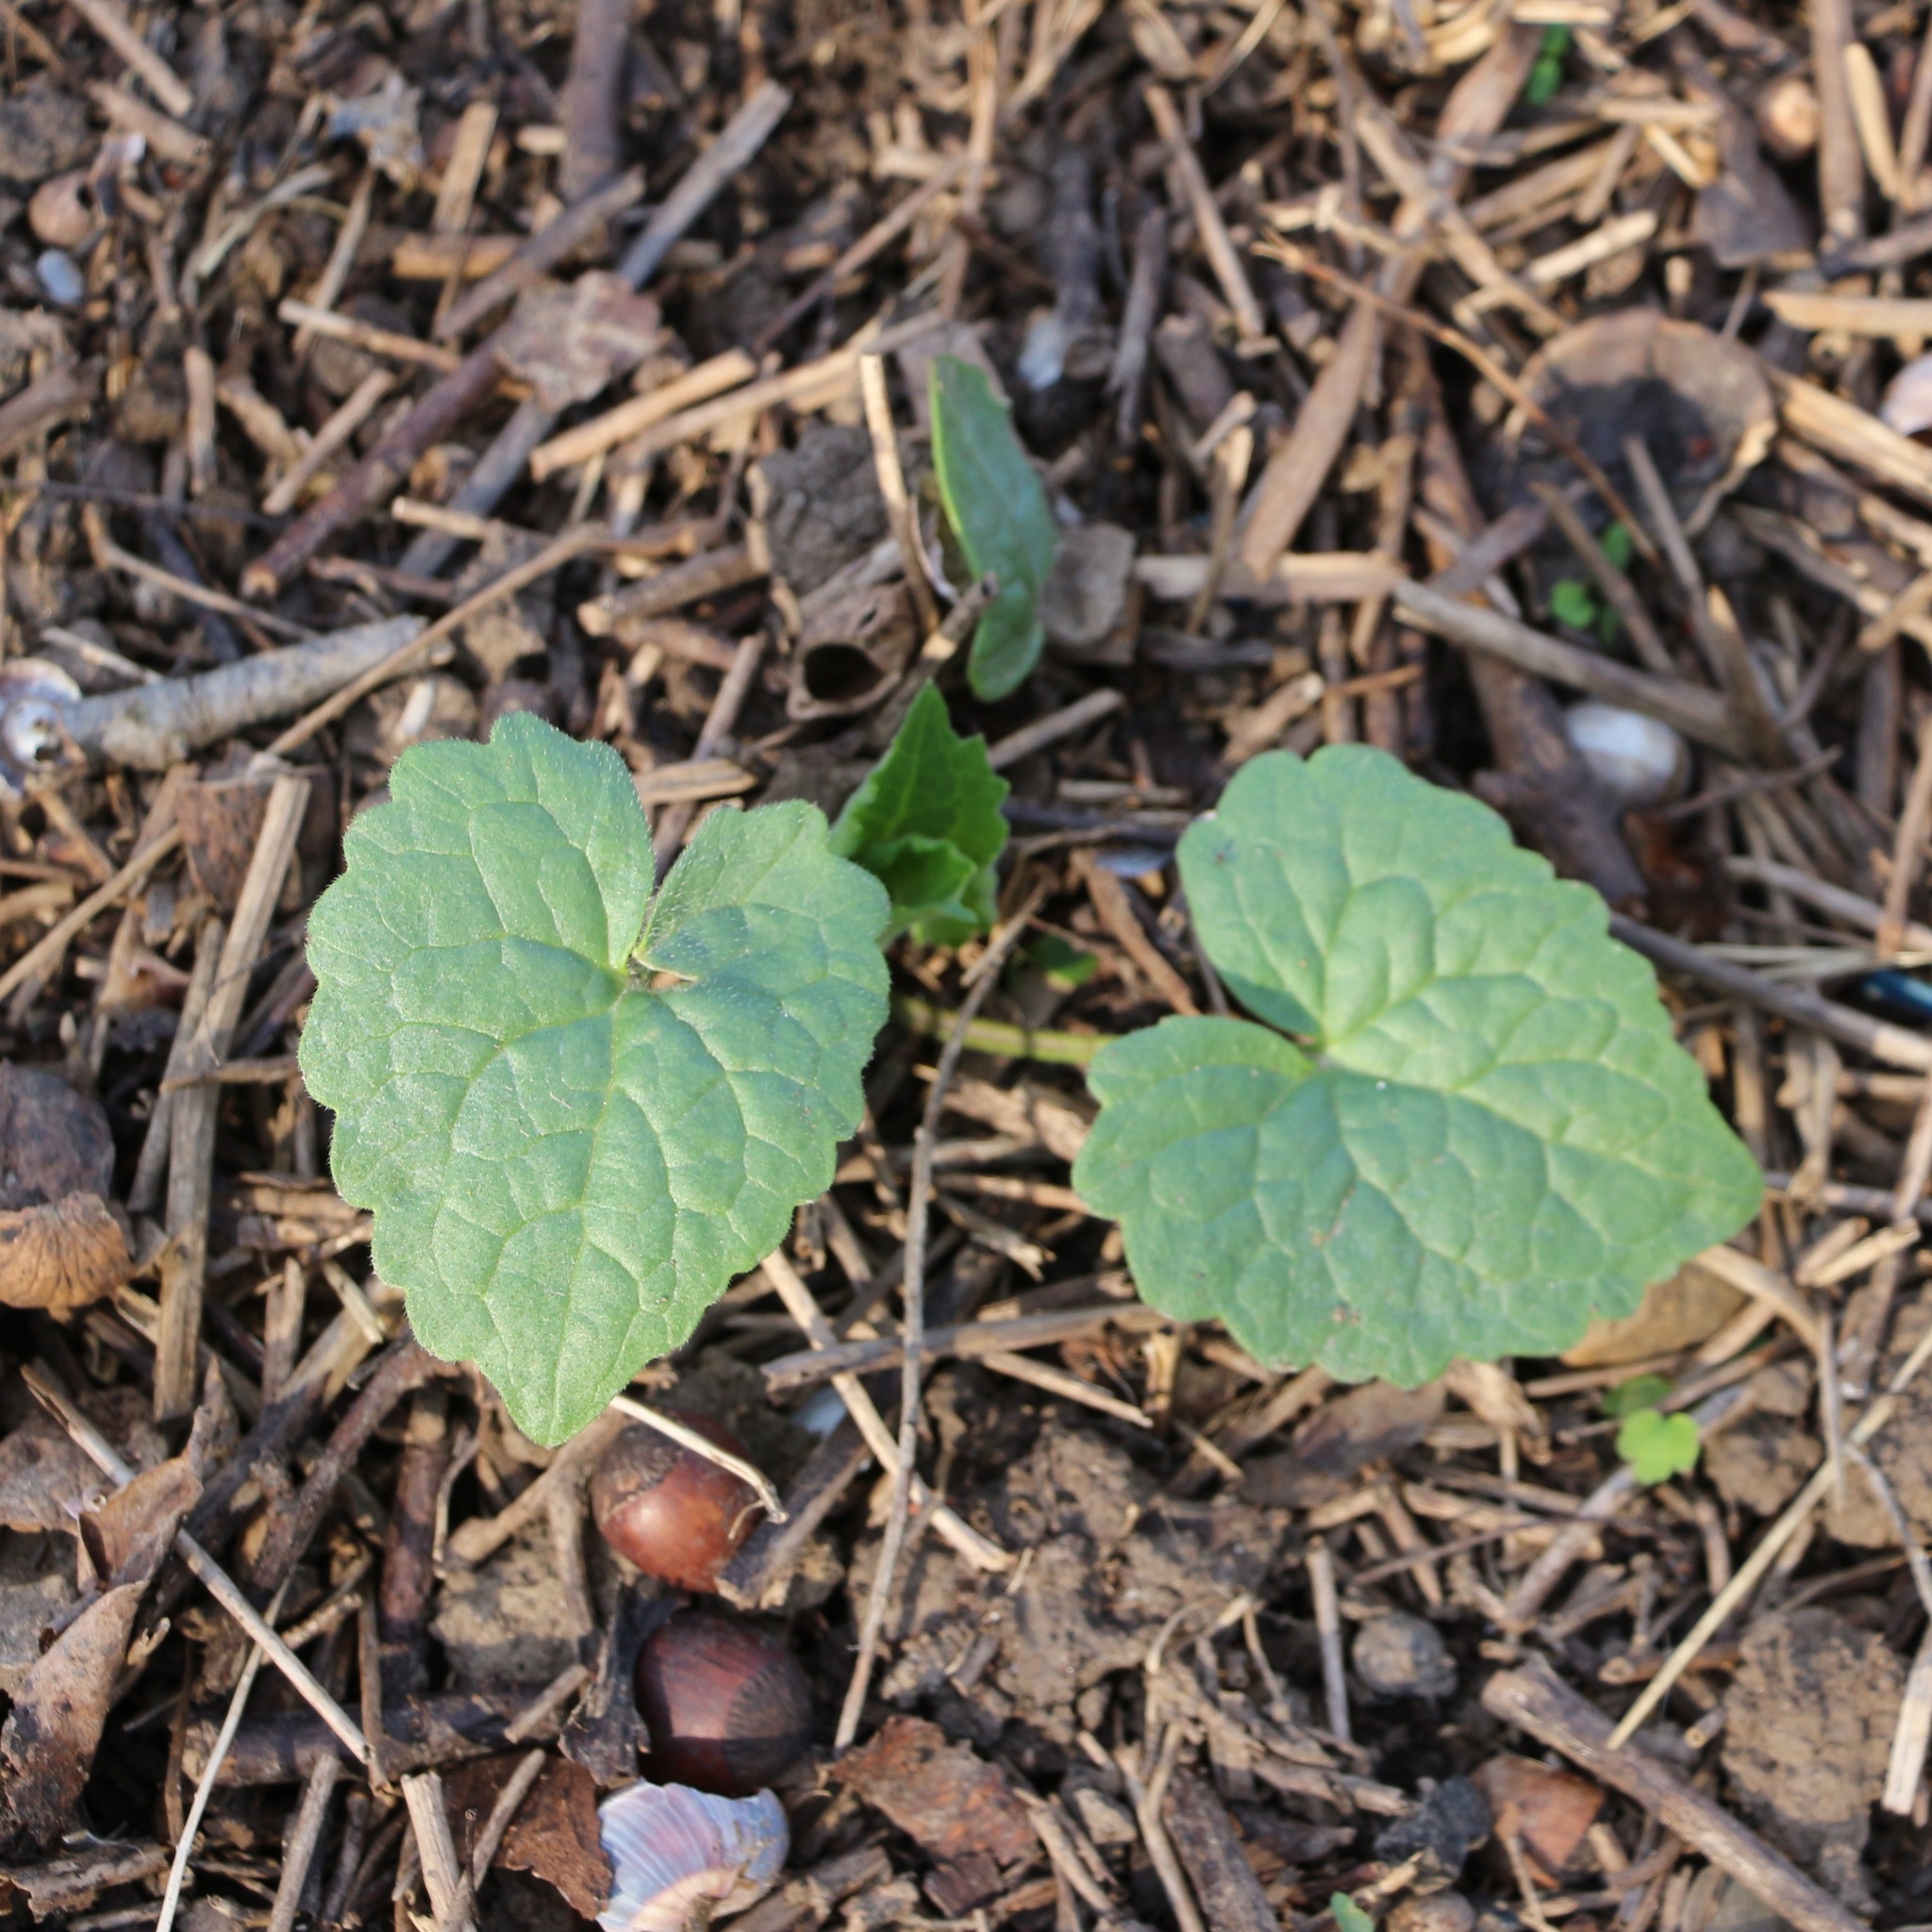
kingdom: Plantae
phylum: Tracheophyta
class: Magnoliopsida
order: Brassicales
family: Brassicaceae
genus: Lunaria
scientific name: Lunaria annua
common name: Honesty
